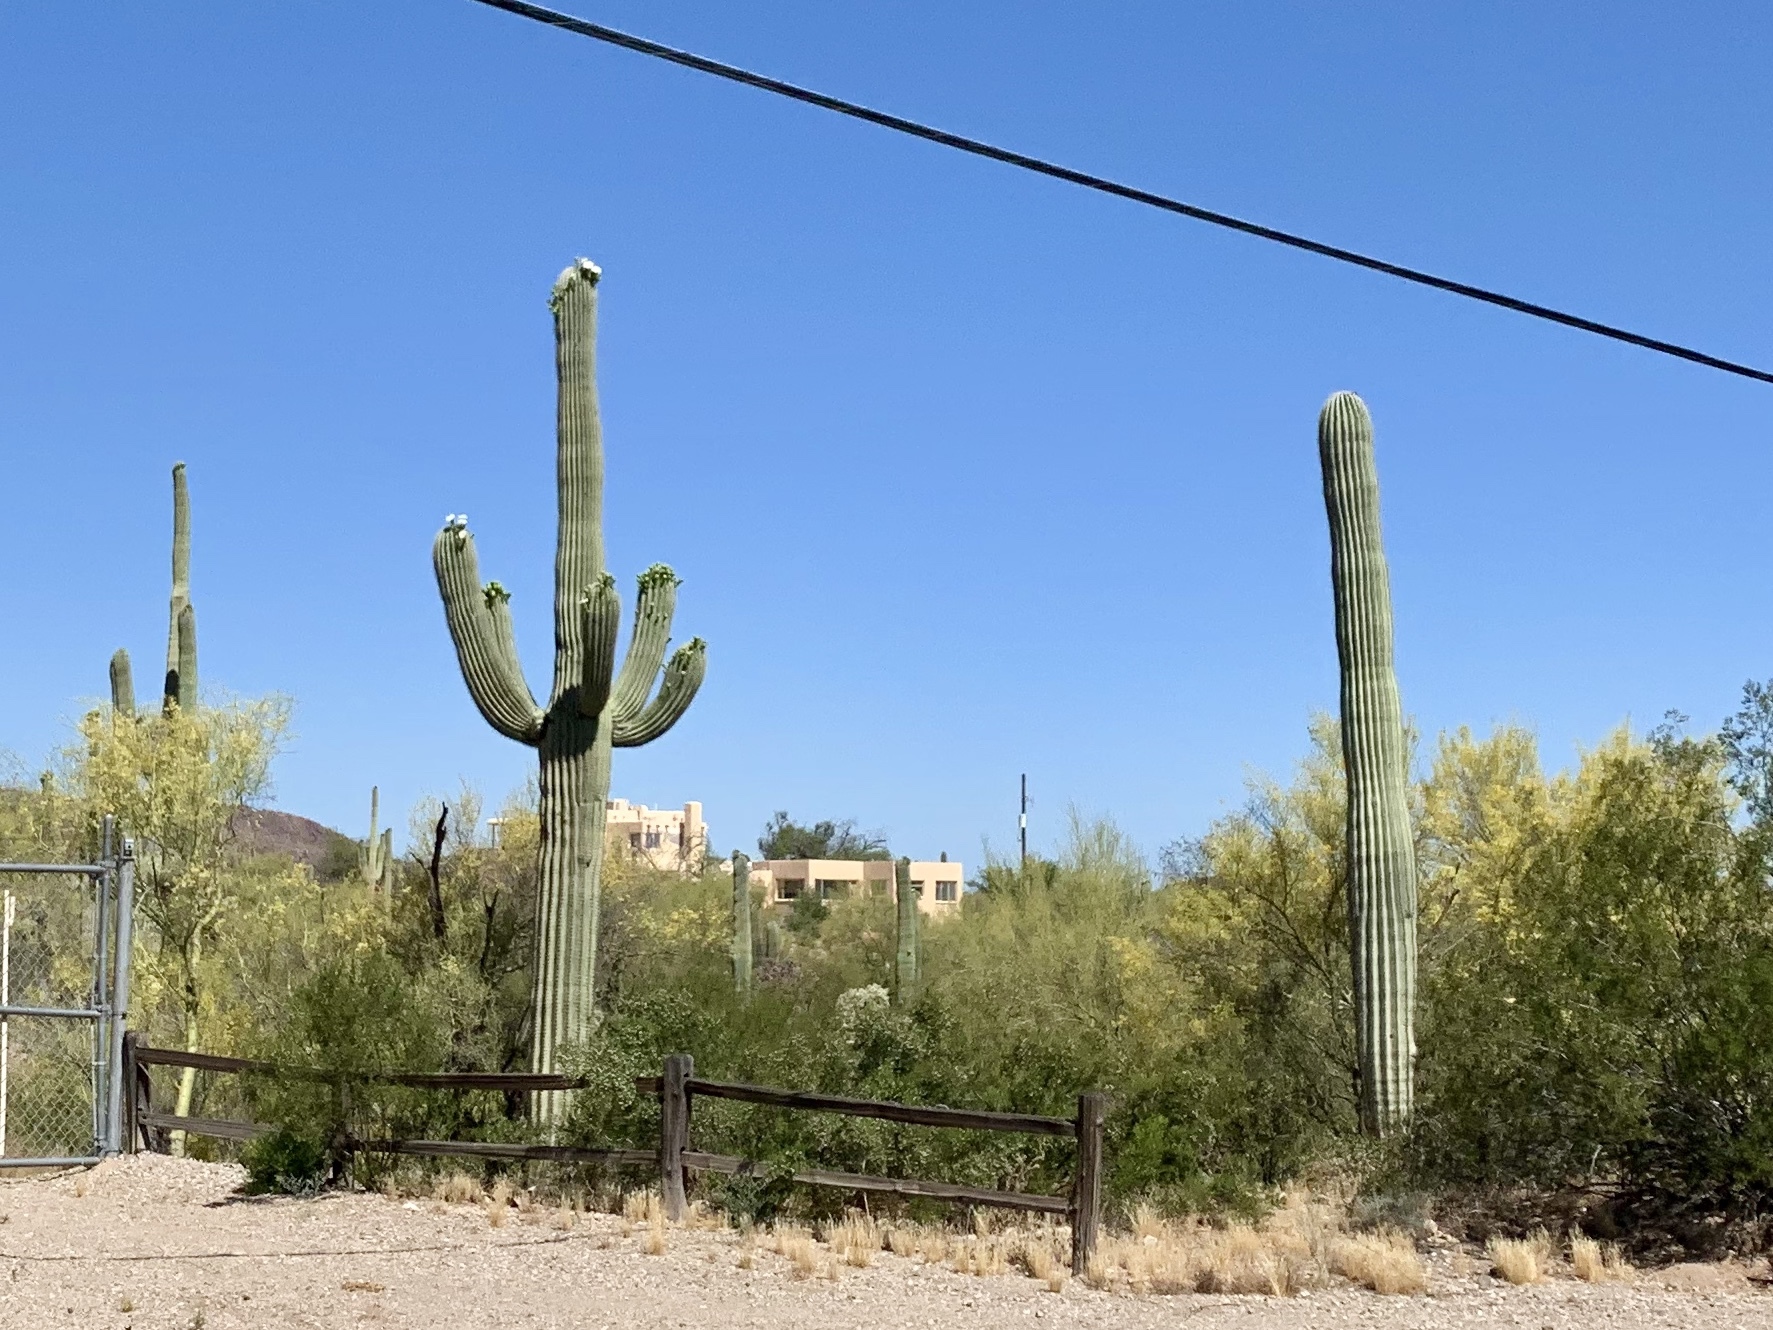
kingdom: Plantae
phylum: Tracheophyta
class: Magnoliopsida
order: Caryophyllales
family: Cactaceae
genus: Carnegiea
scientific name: Carnegiea gigantea
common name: Saguaro
